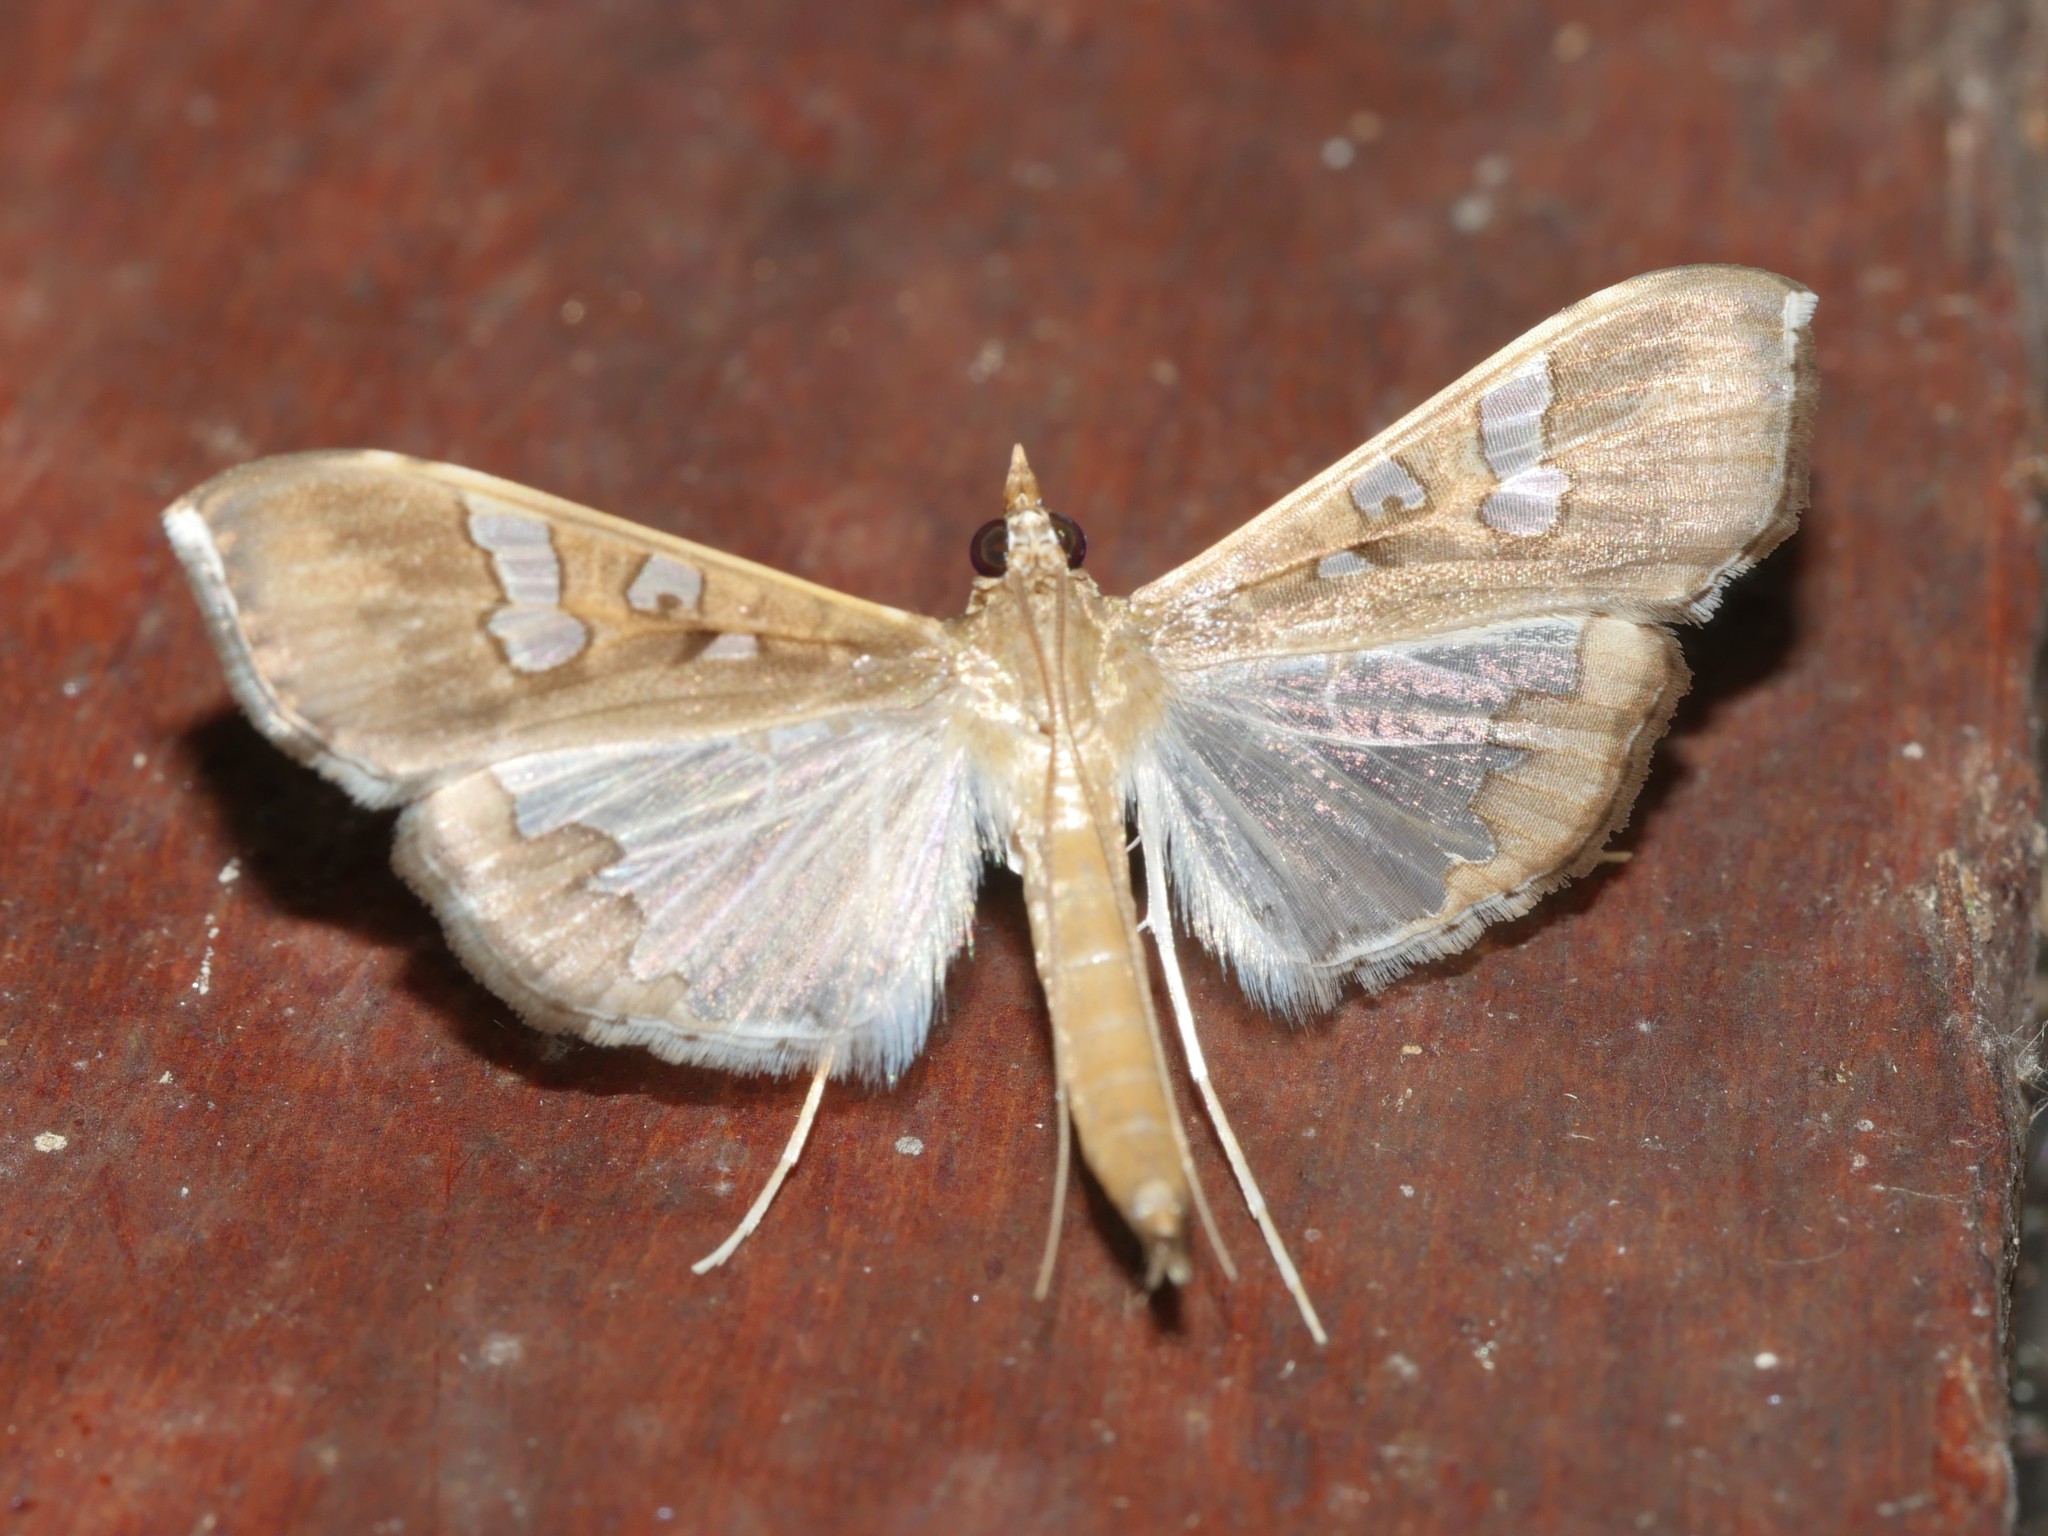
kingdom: Animalia
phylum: Arthropoda
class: Insecta
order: Lepidoptera
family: Crambidae
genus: Maruca
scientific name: Maruca vitrata
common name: Maruca pod borer
